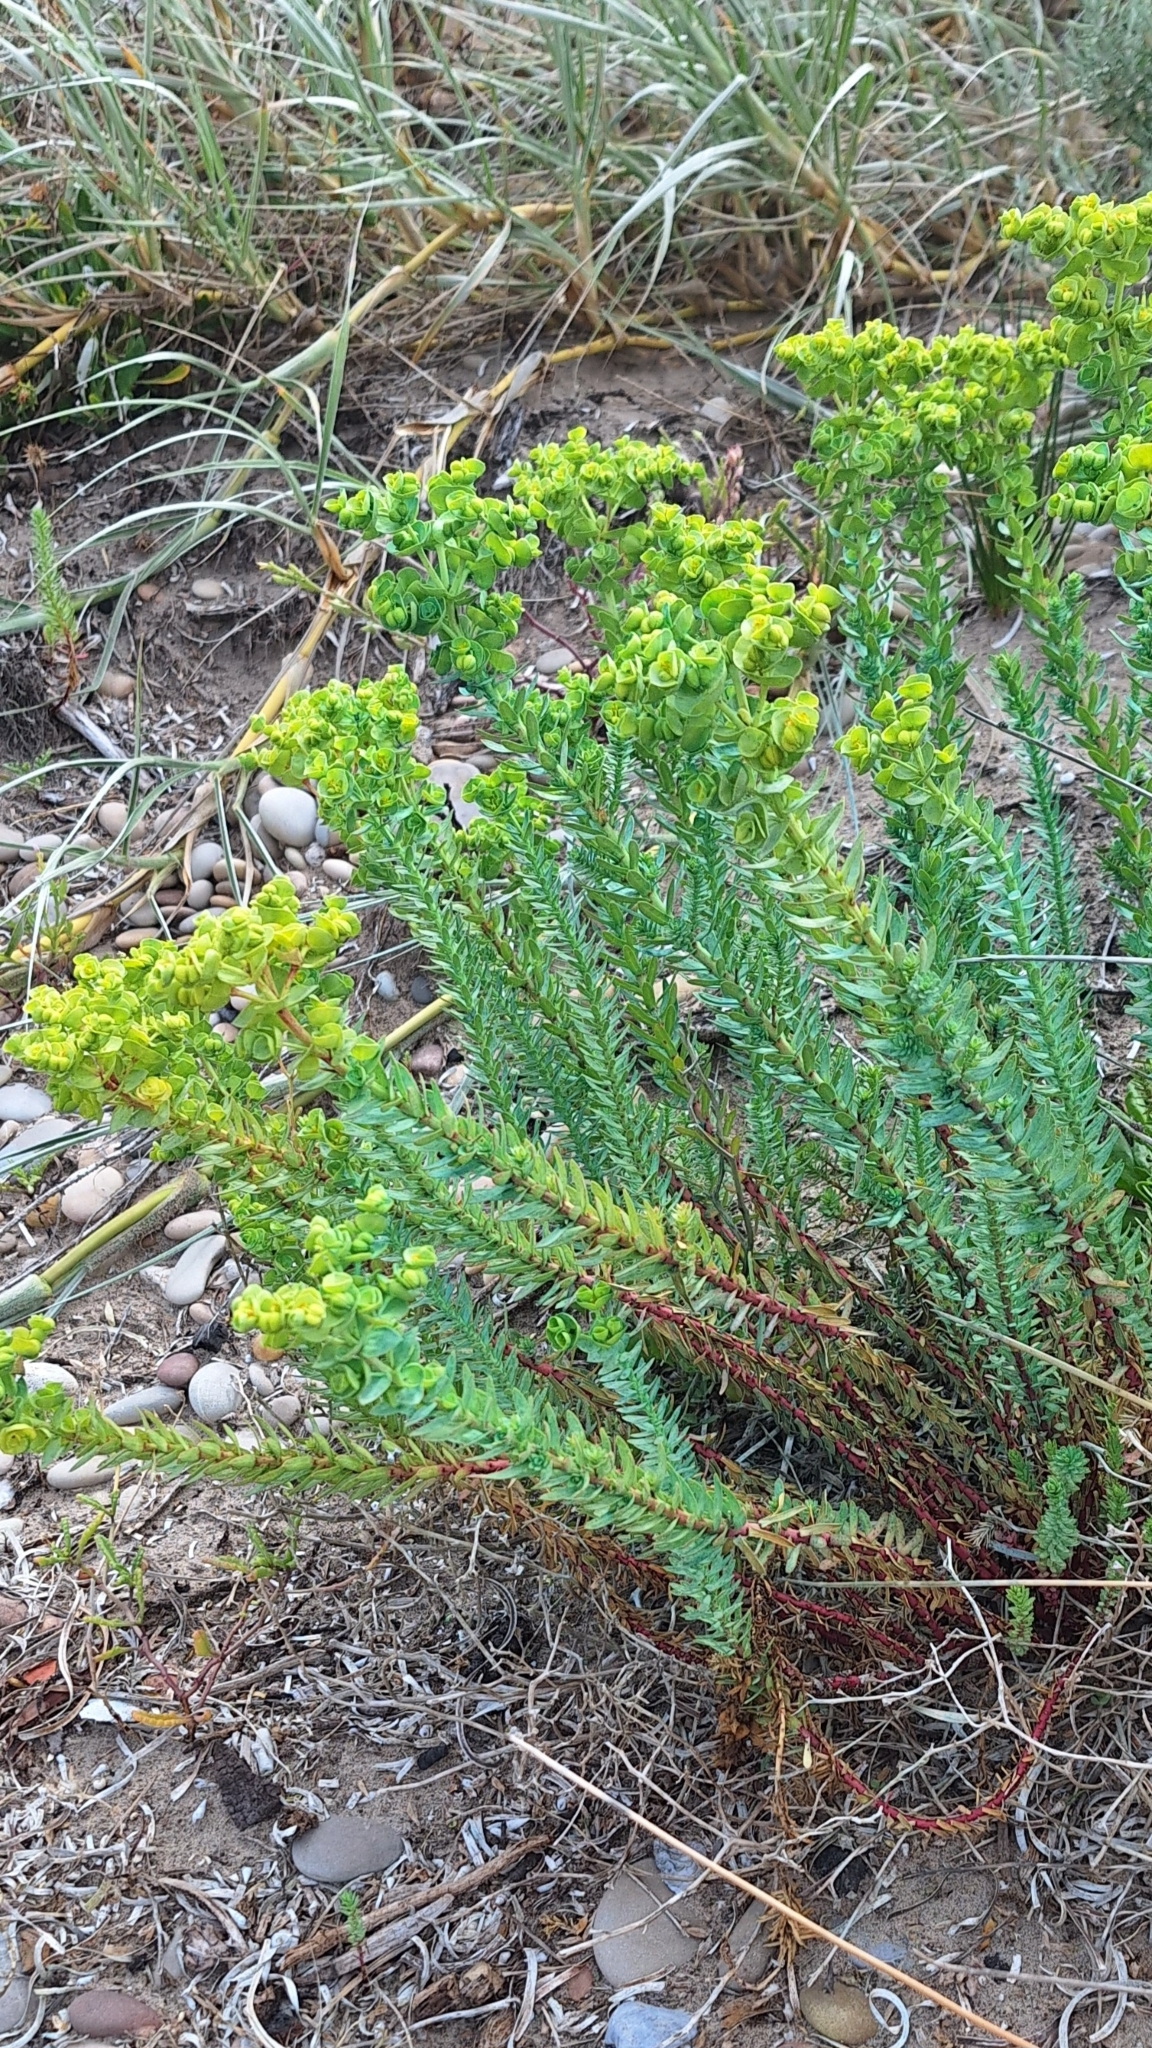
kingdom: Plantae
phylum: Tracheophyta
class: Magnoliopsida
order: Malpighiales
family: Euphorbiaceae
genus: Euphorbia
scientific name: Euphorbia paralias
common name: Sea spurge
